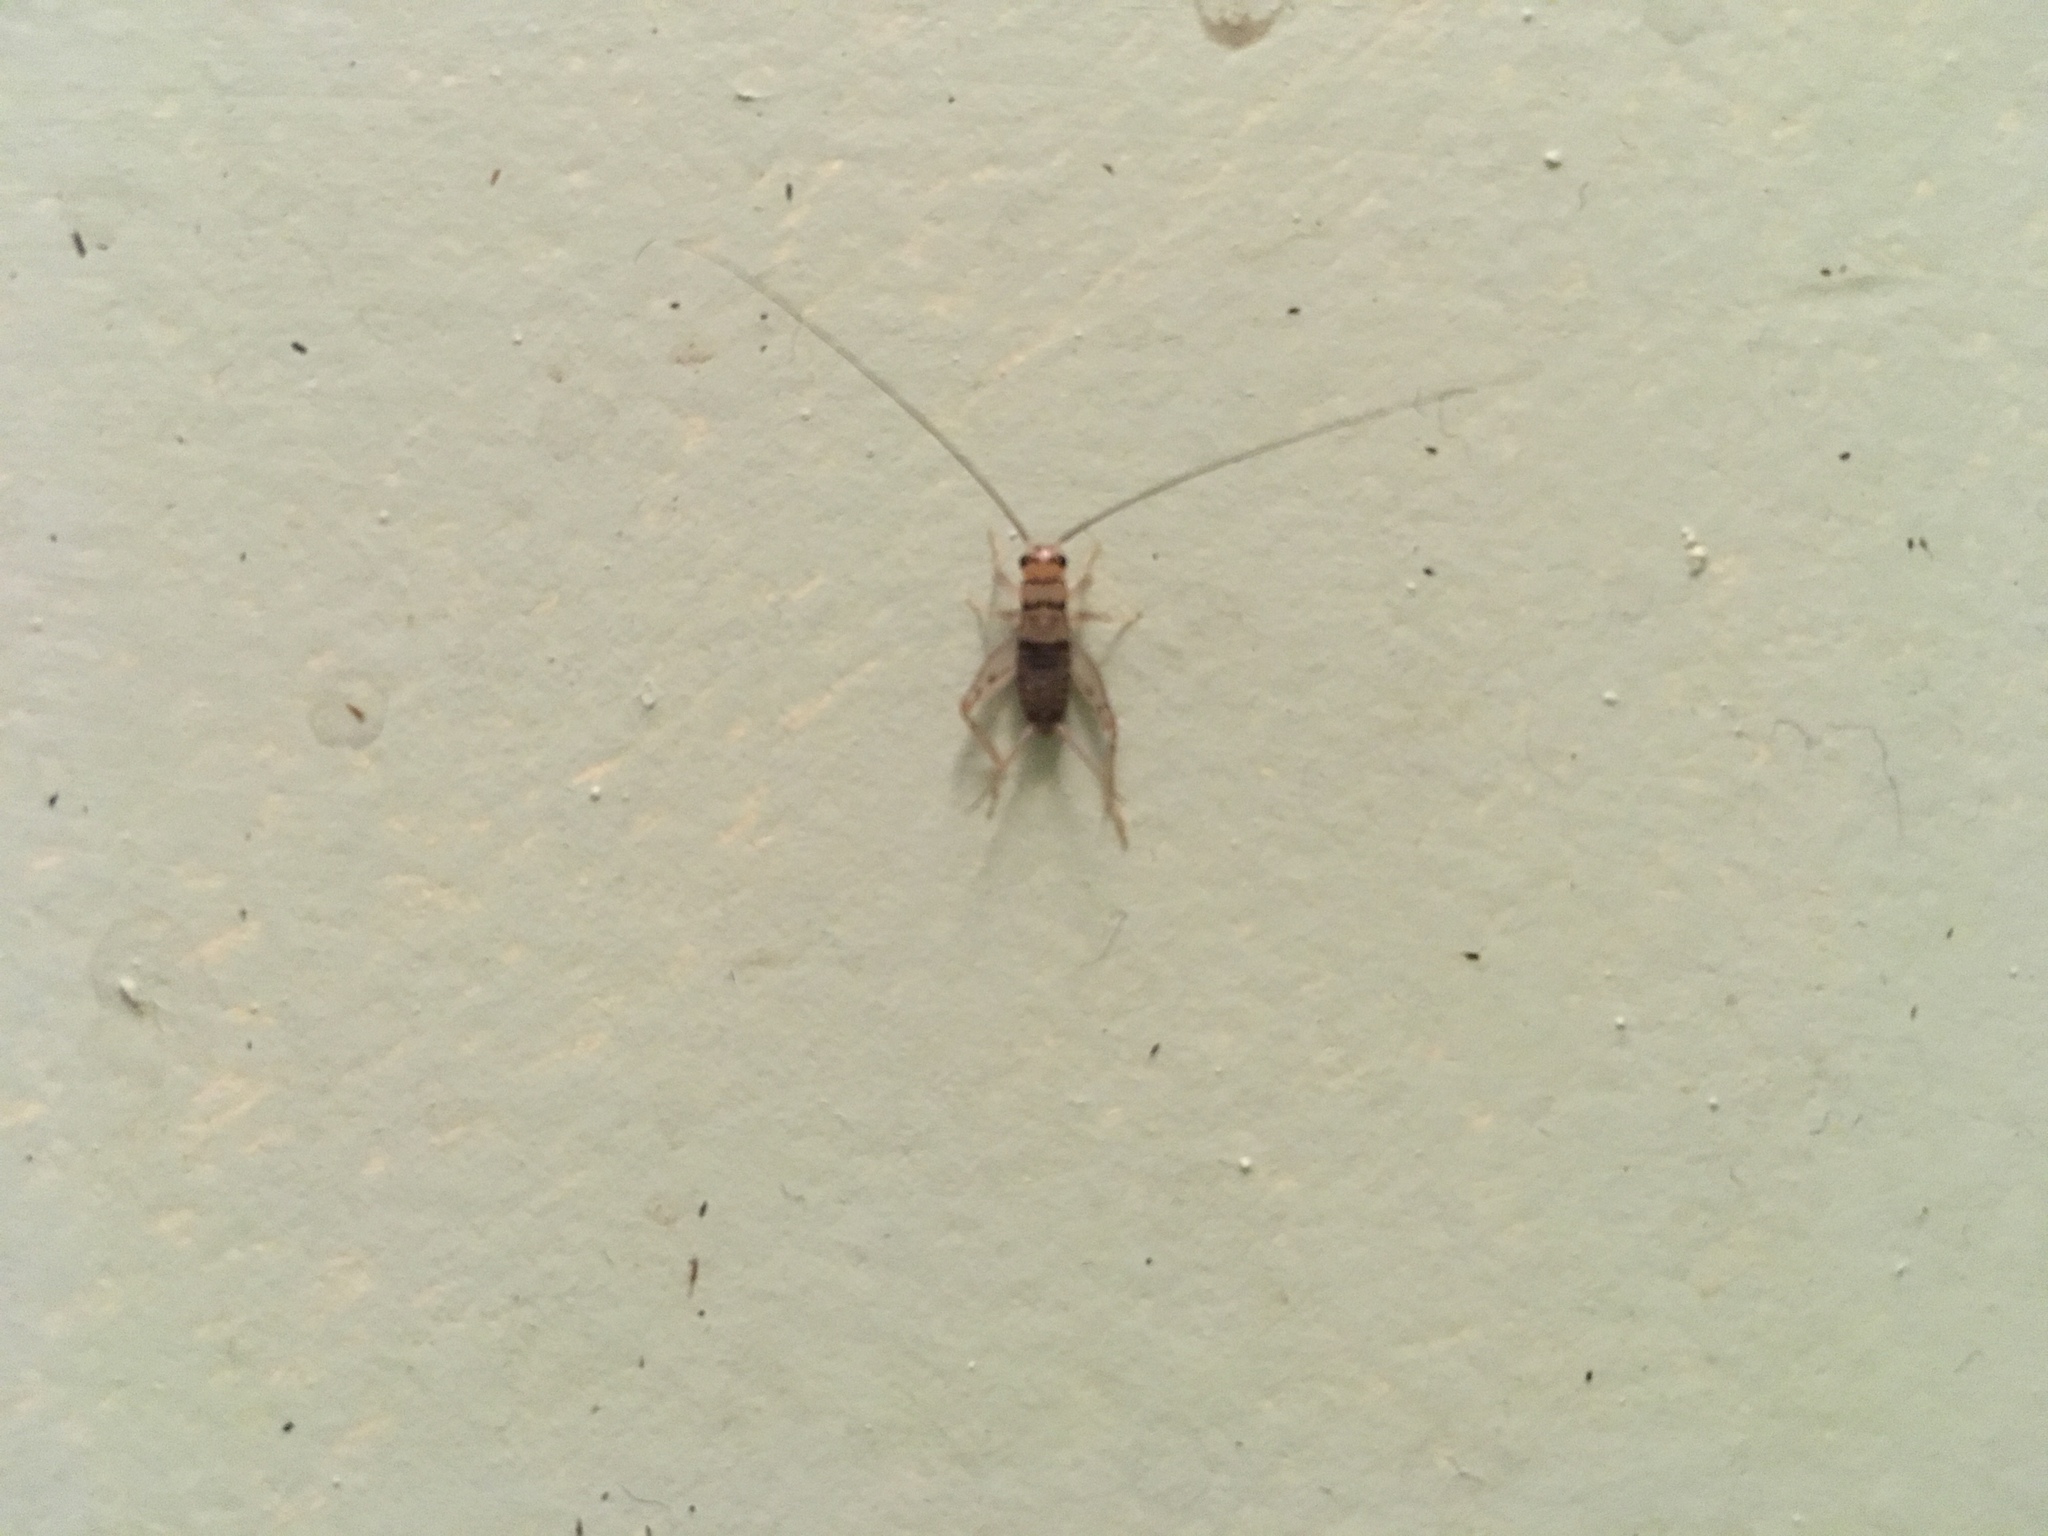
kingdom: Animalia
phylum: Arthropoda
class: Insecta
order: Orthoptera
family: Gryllidae
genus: Gryllodes
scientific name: Gryllodes sigillatus
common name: Tropical house cricket
